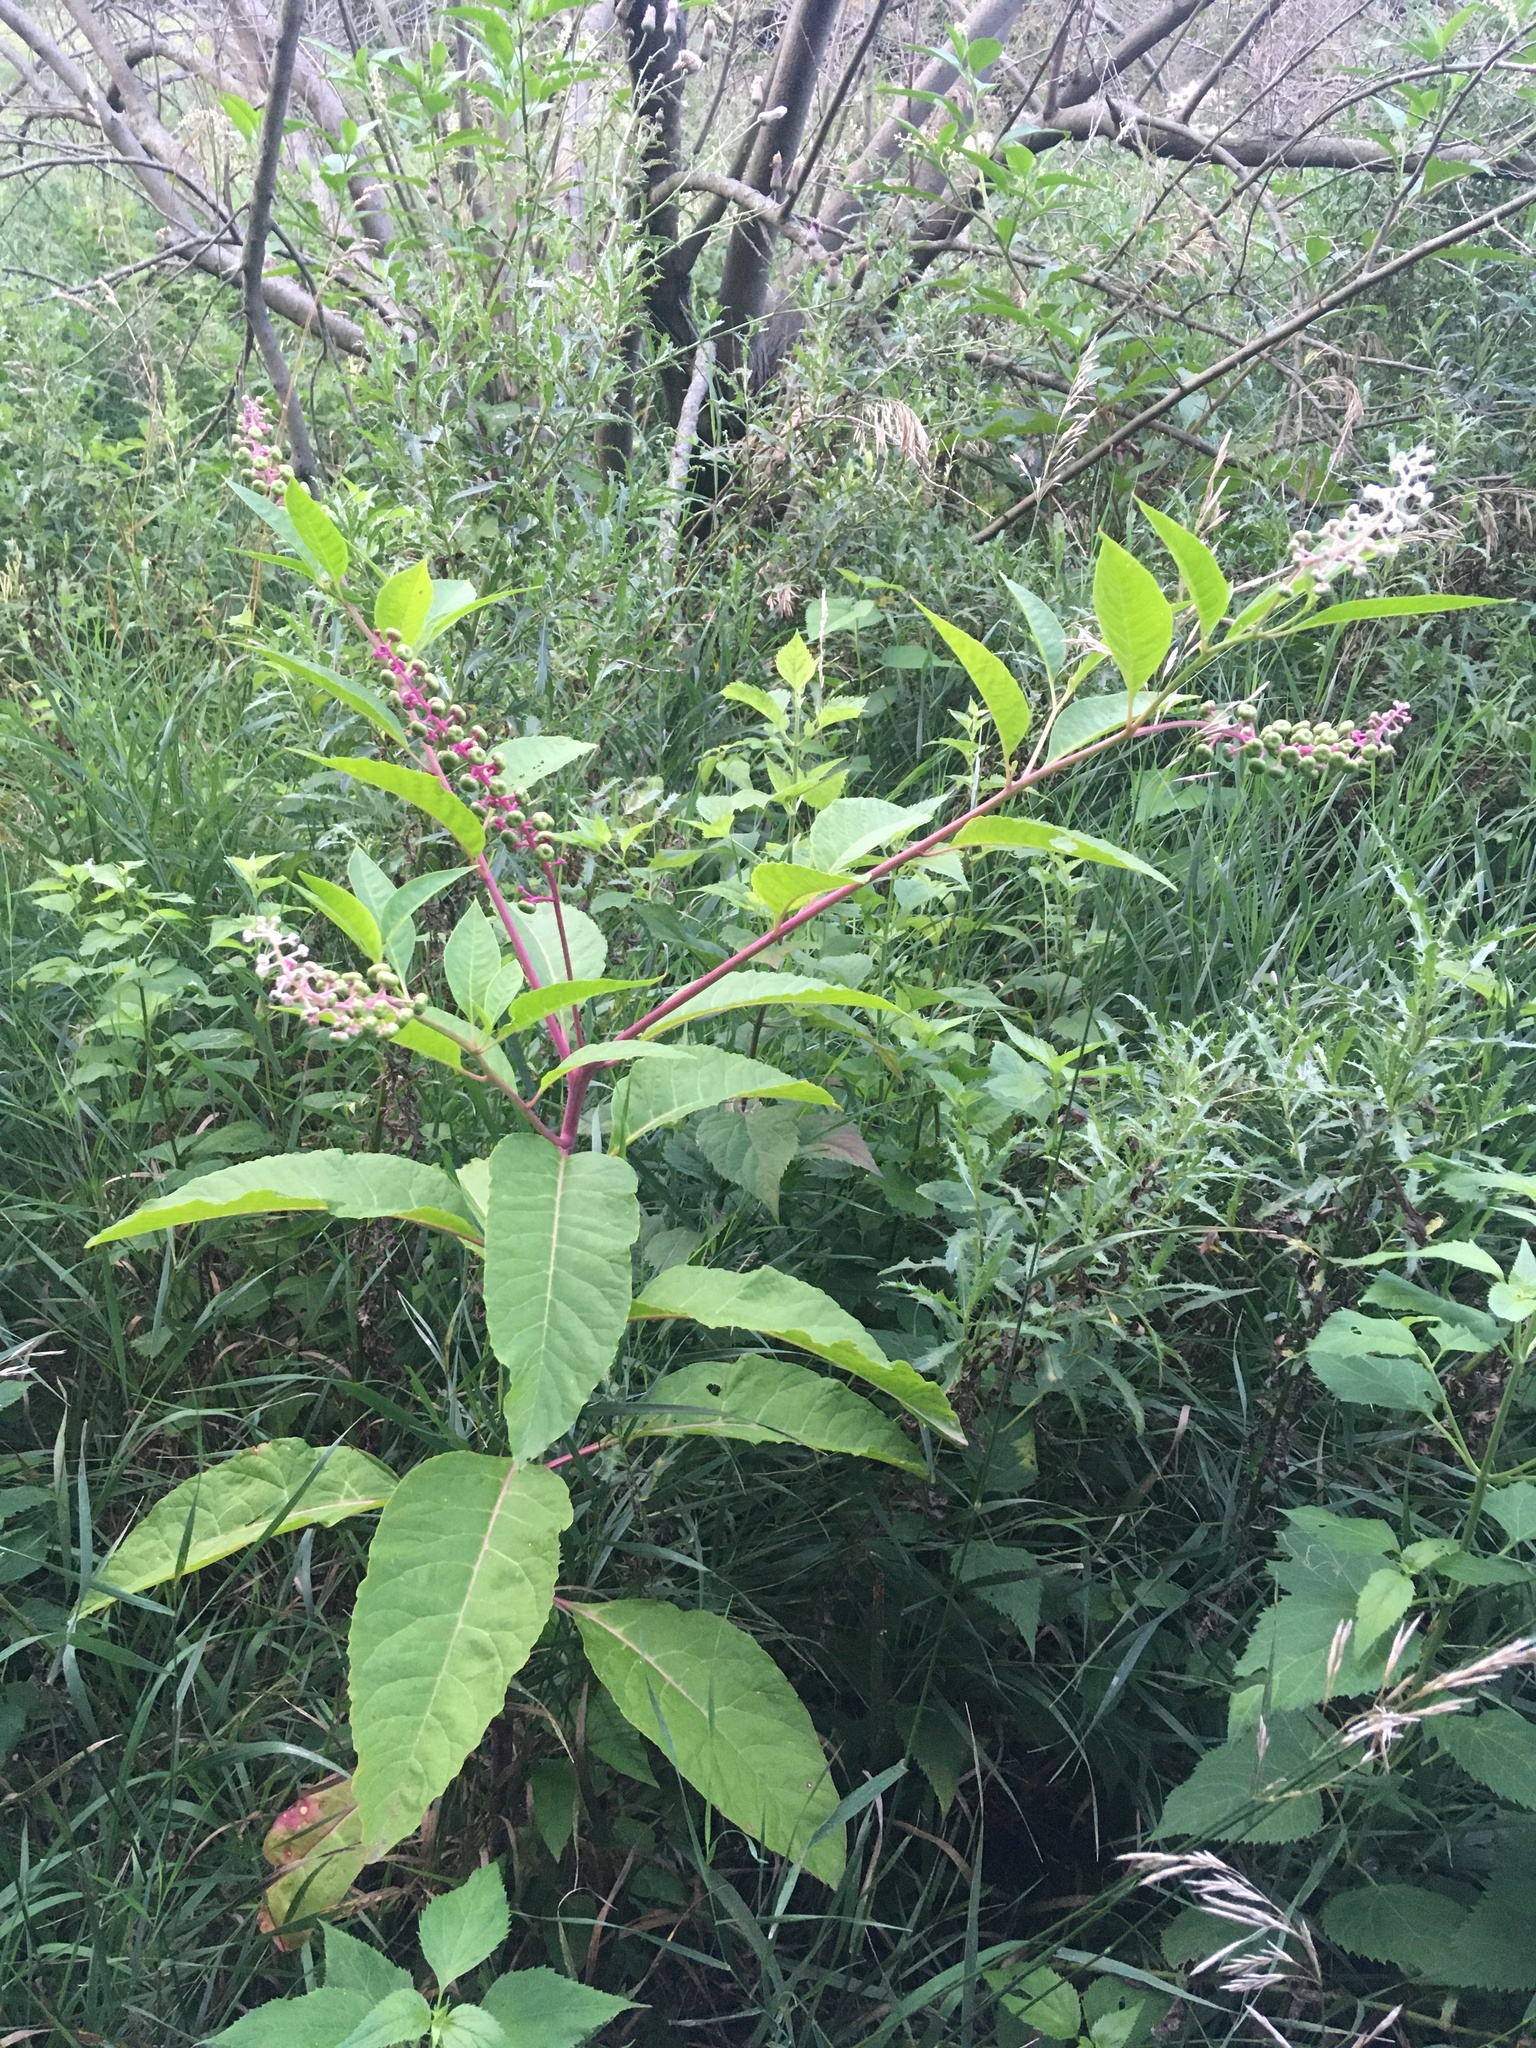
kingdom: Plantae
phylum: Tracheophyta
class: Magnoliopsida
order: Caryophyllales
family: Phytolaccaceae
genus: Phytolacca
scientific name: Phytolacca americana
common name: American pokeweed
